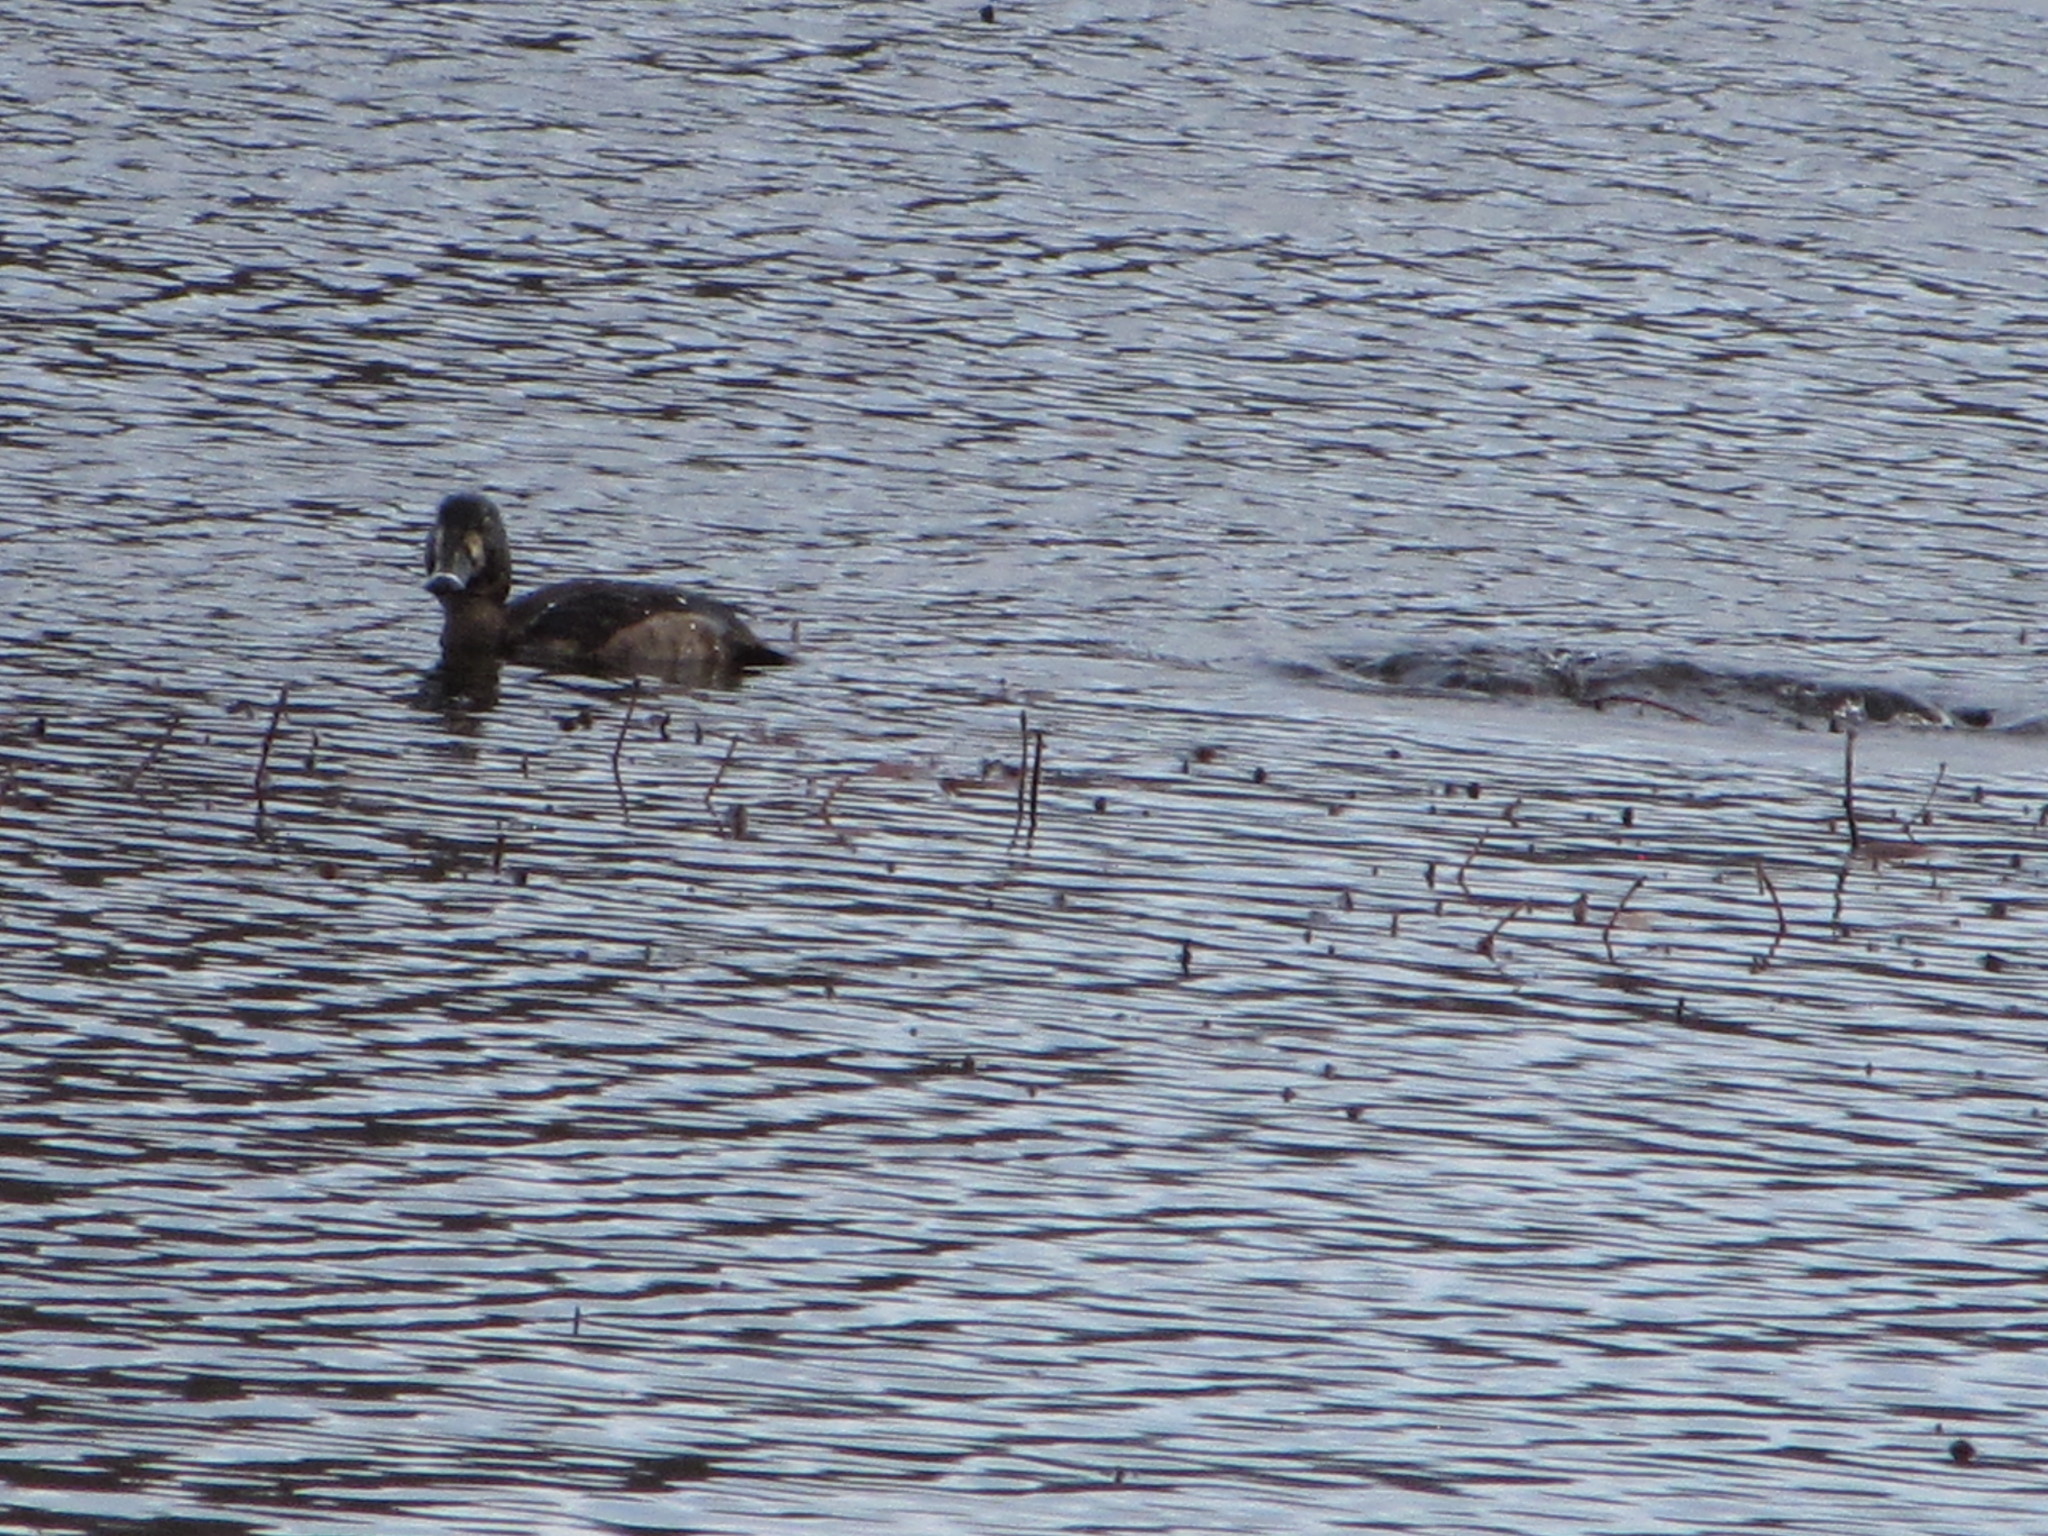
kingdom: Animalia
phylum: Chordata
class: Aves
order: Anseriformes
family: Anatidae
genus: Aythya
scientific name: Aythya affinis
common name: Lesser scaup
